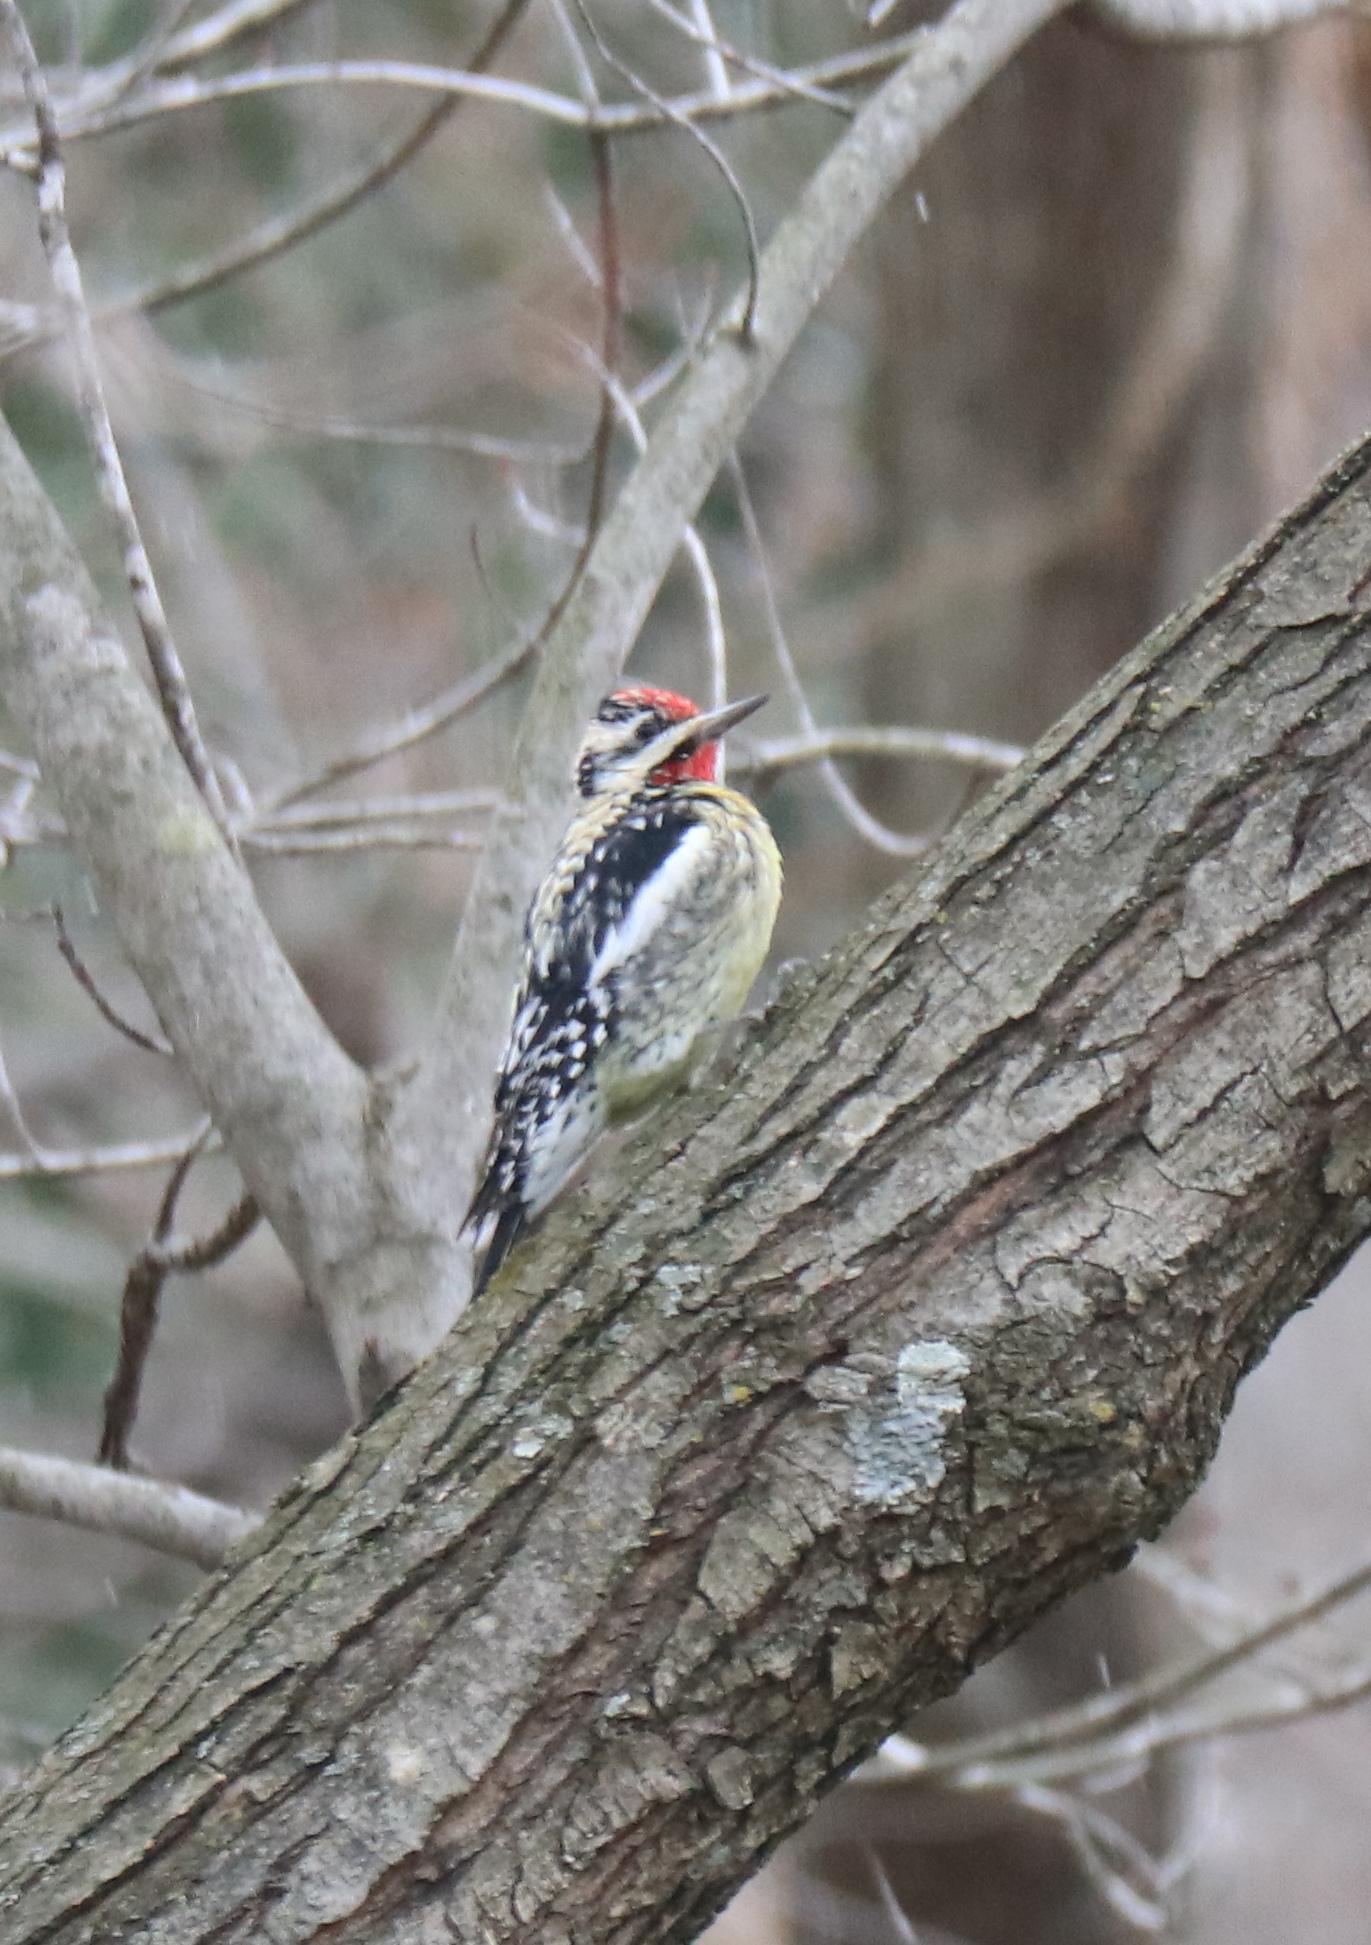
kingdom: Animalia
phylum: Chordata
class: Aves
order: Piciformes
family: Picidae
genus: Sphyrapicus
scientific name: Sphyrapicus varius
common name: Yellow-bellied sapsucker
